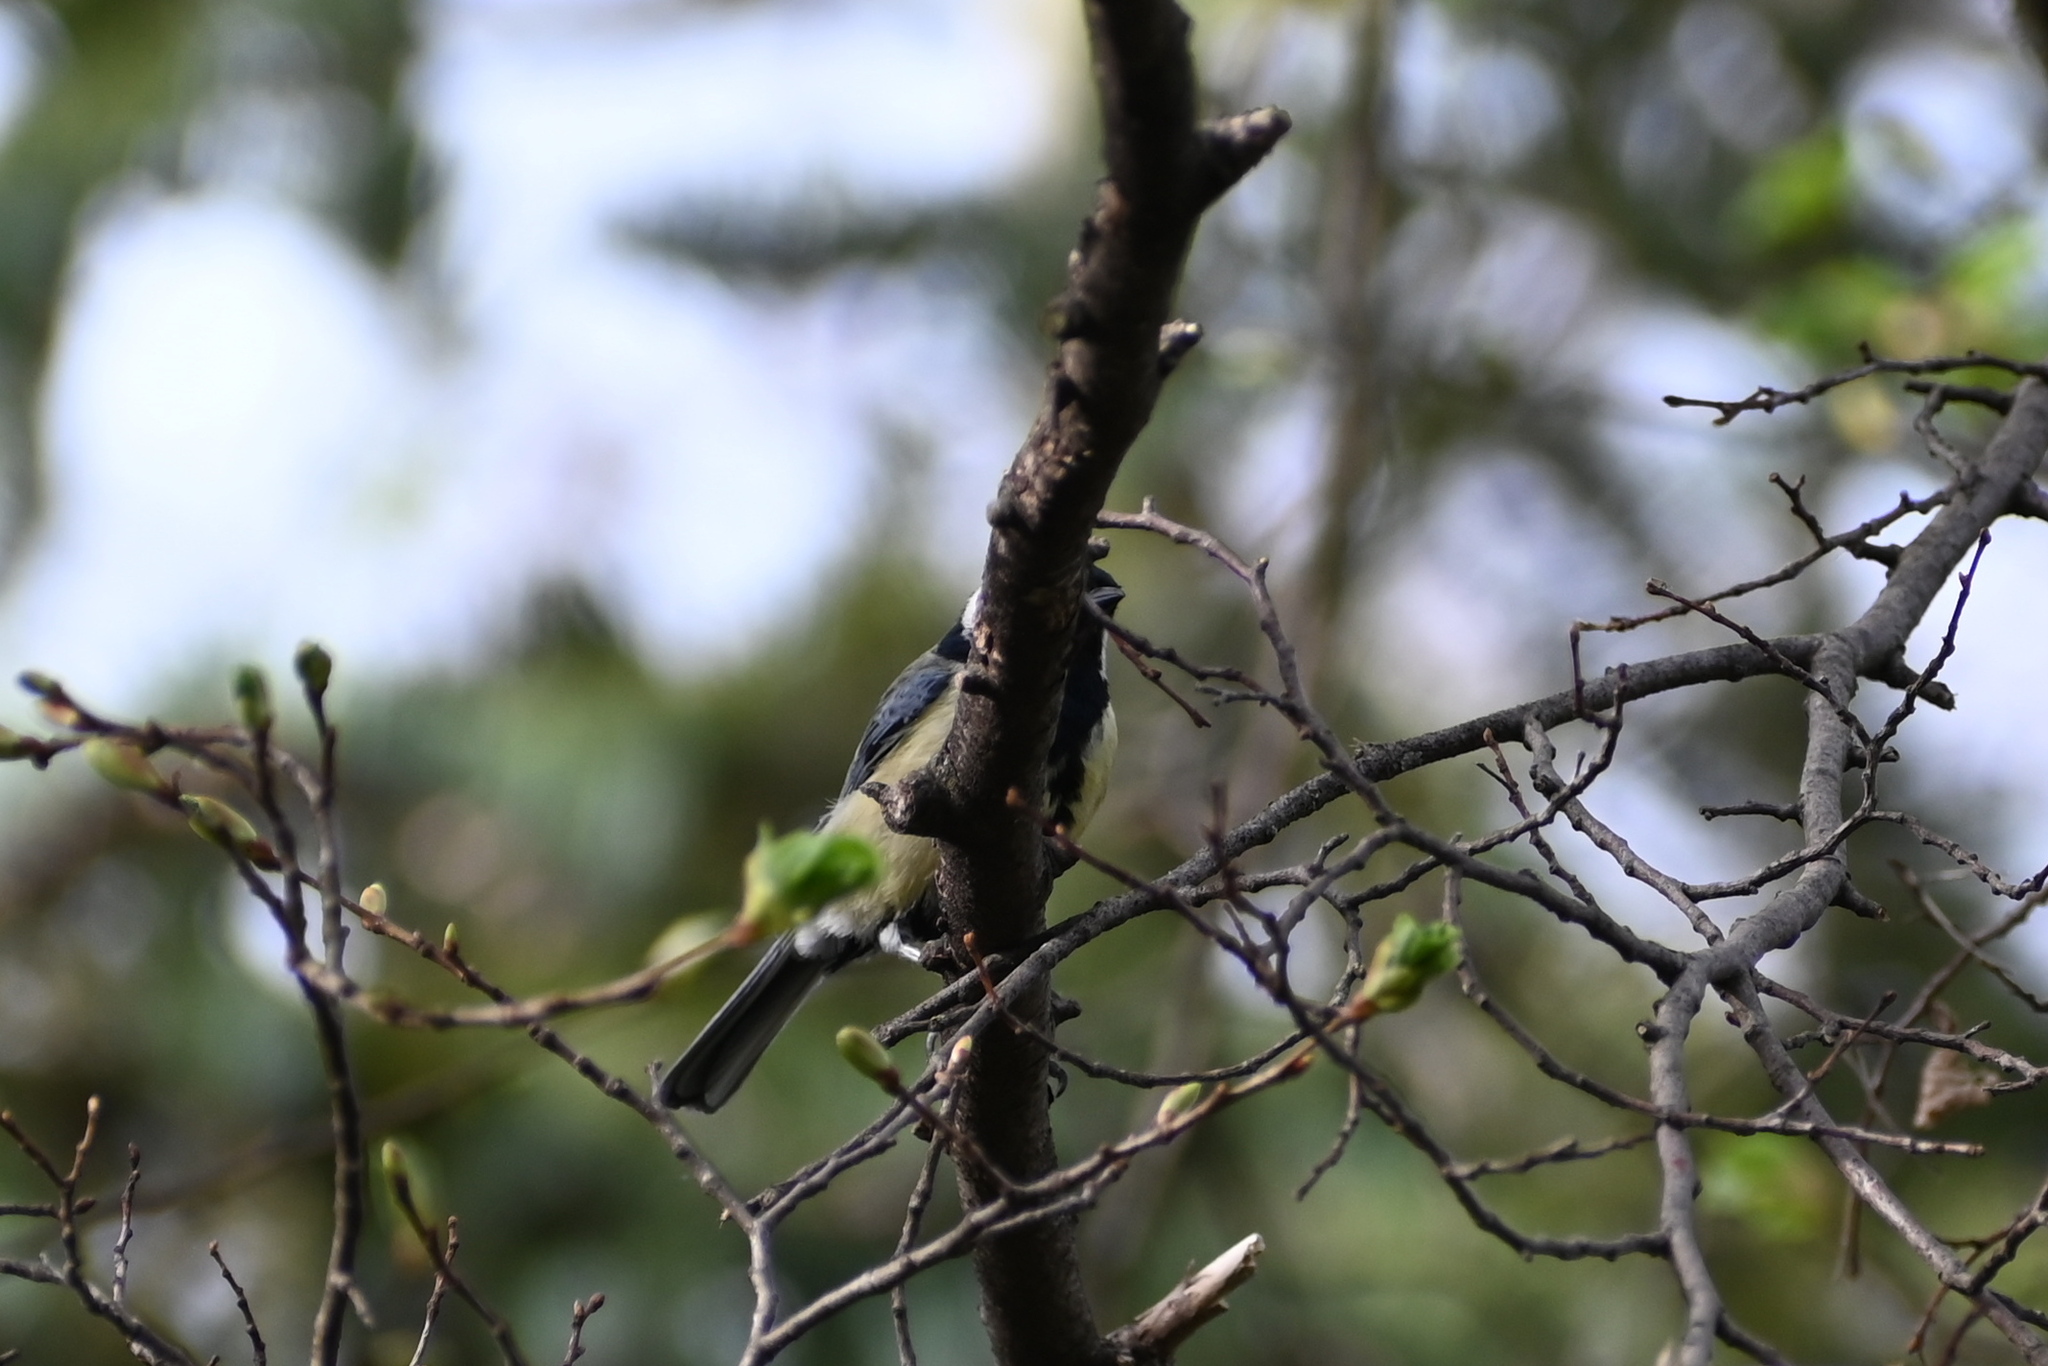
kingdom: Animalia
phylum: Chordata
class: Aves
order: Passeriformes
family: Paridae
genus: Parus
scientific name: Parus major
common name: Great tit
